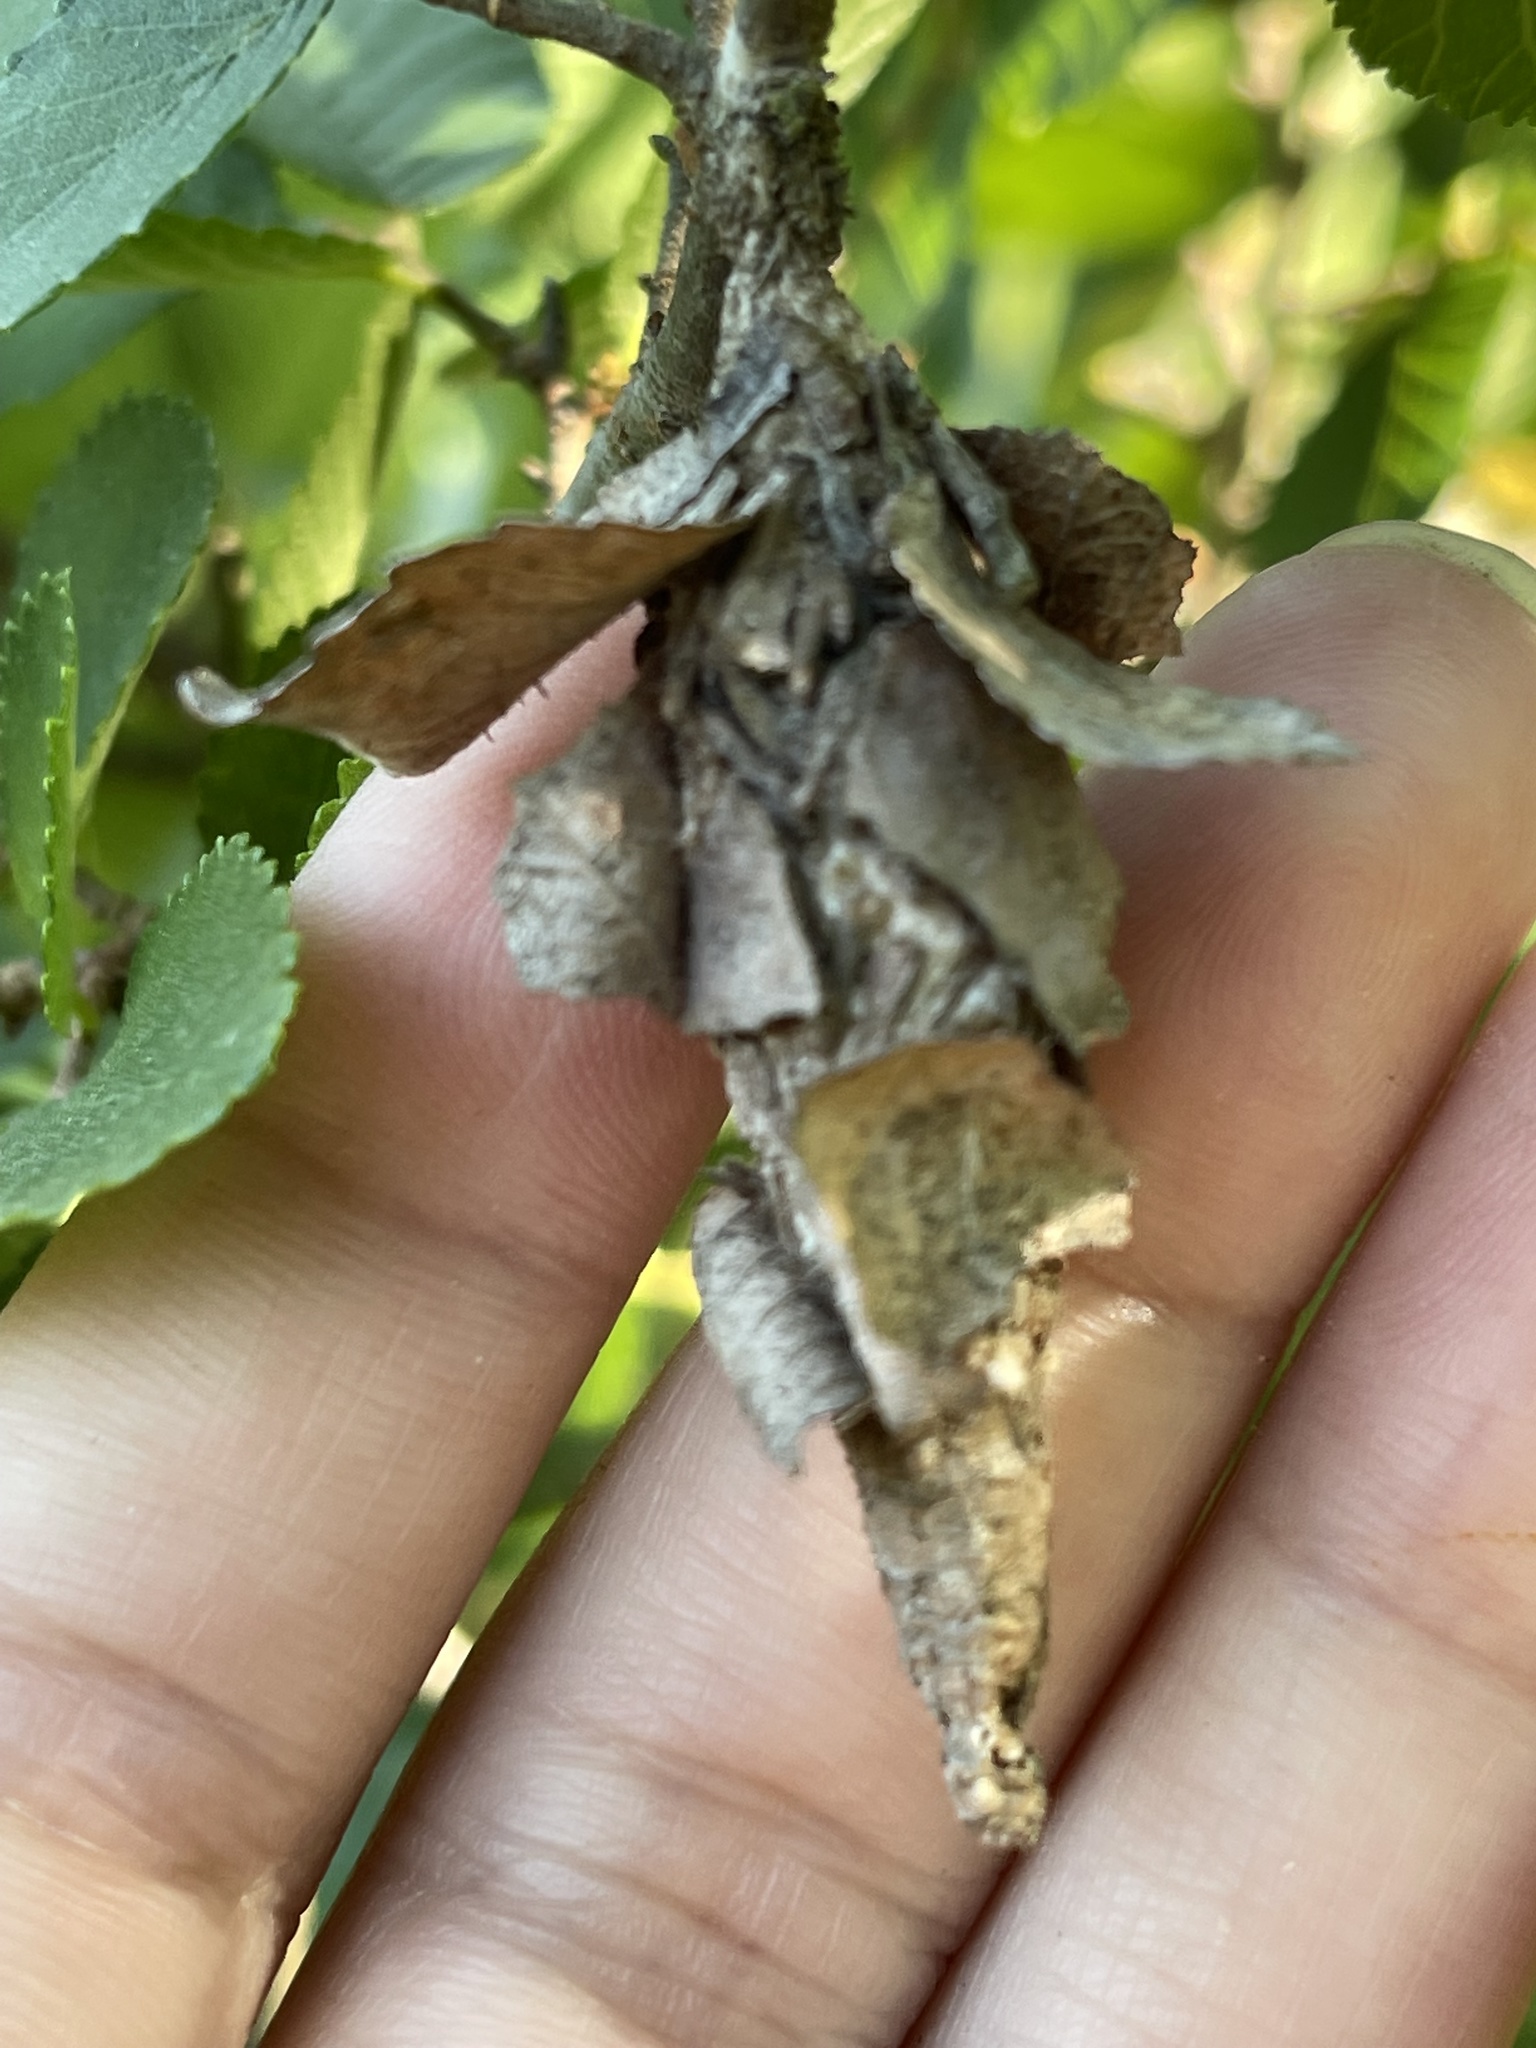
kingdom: Animalia
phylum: Arthropoda
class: Insecta
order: Lepidoptera
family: Psychidae
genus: Thyridopteryx
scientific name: Thyridopteryx ephemeraeformis
